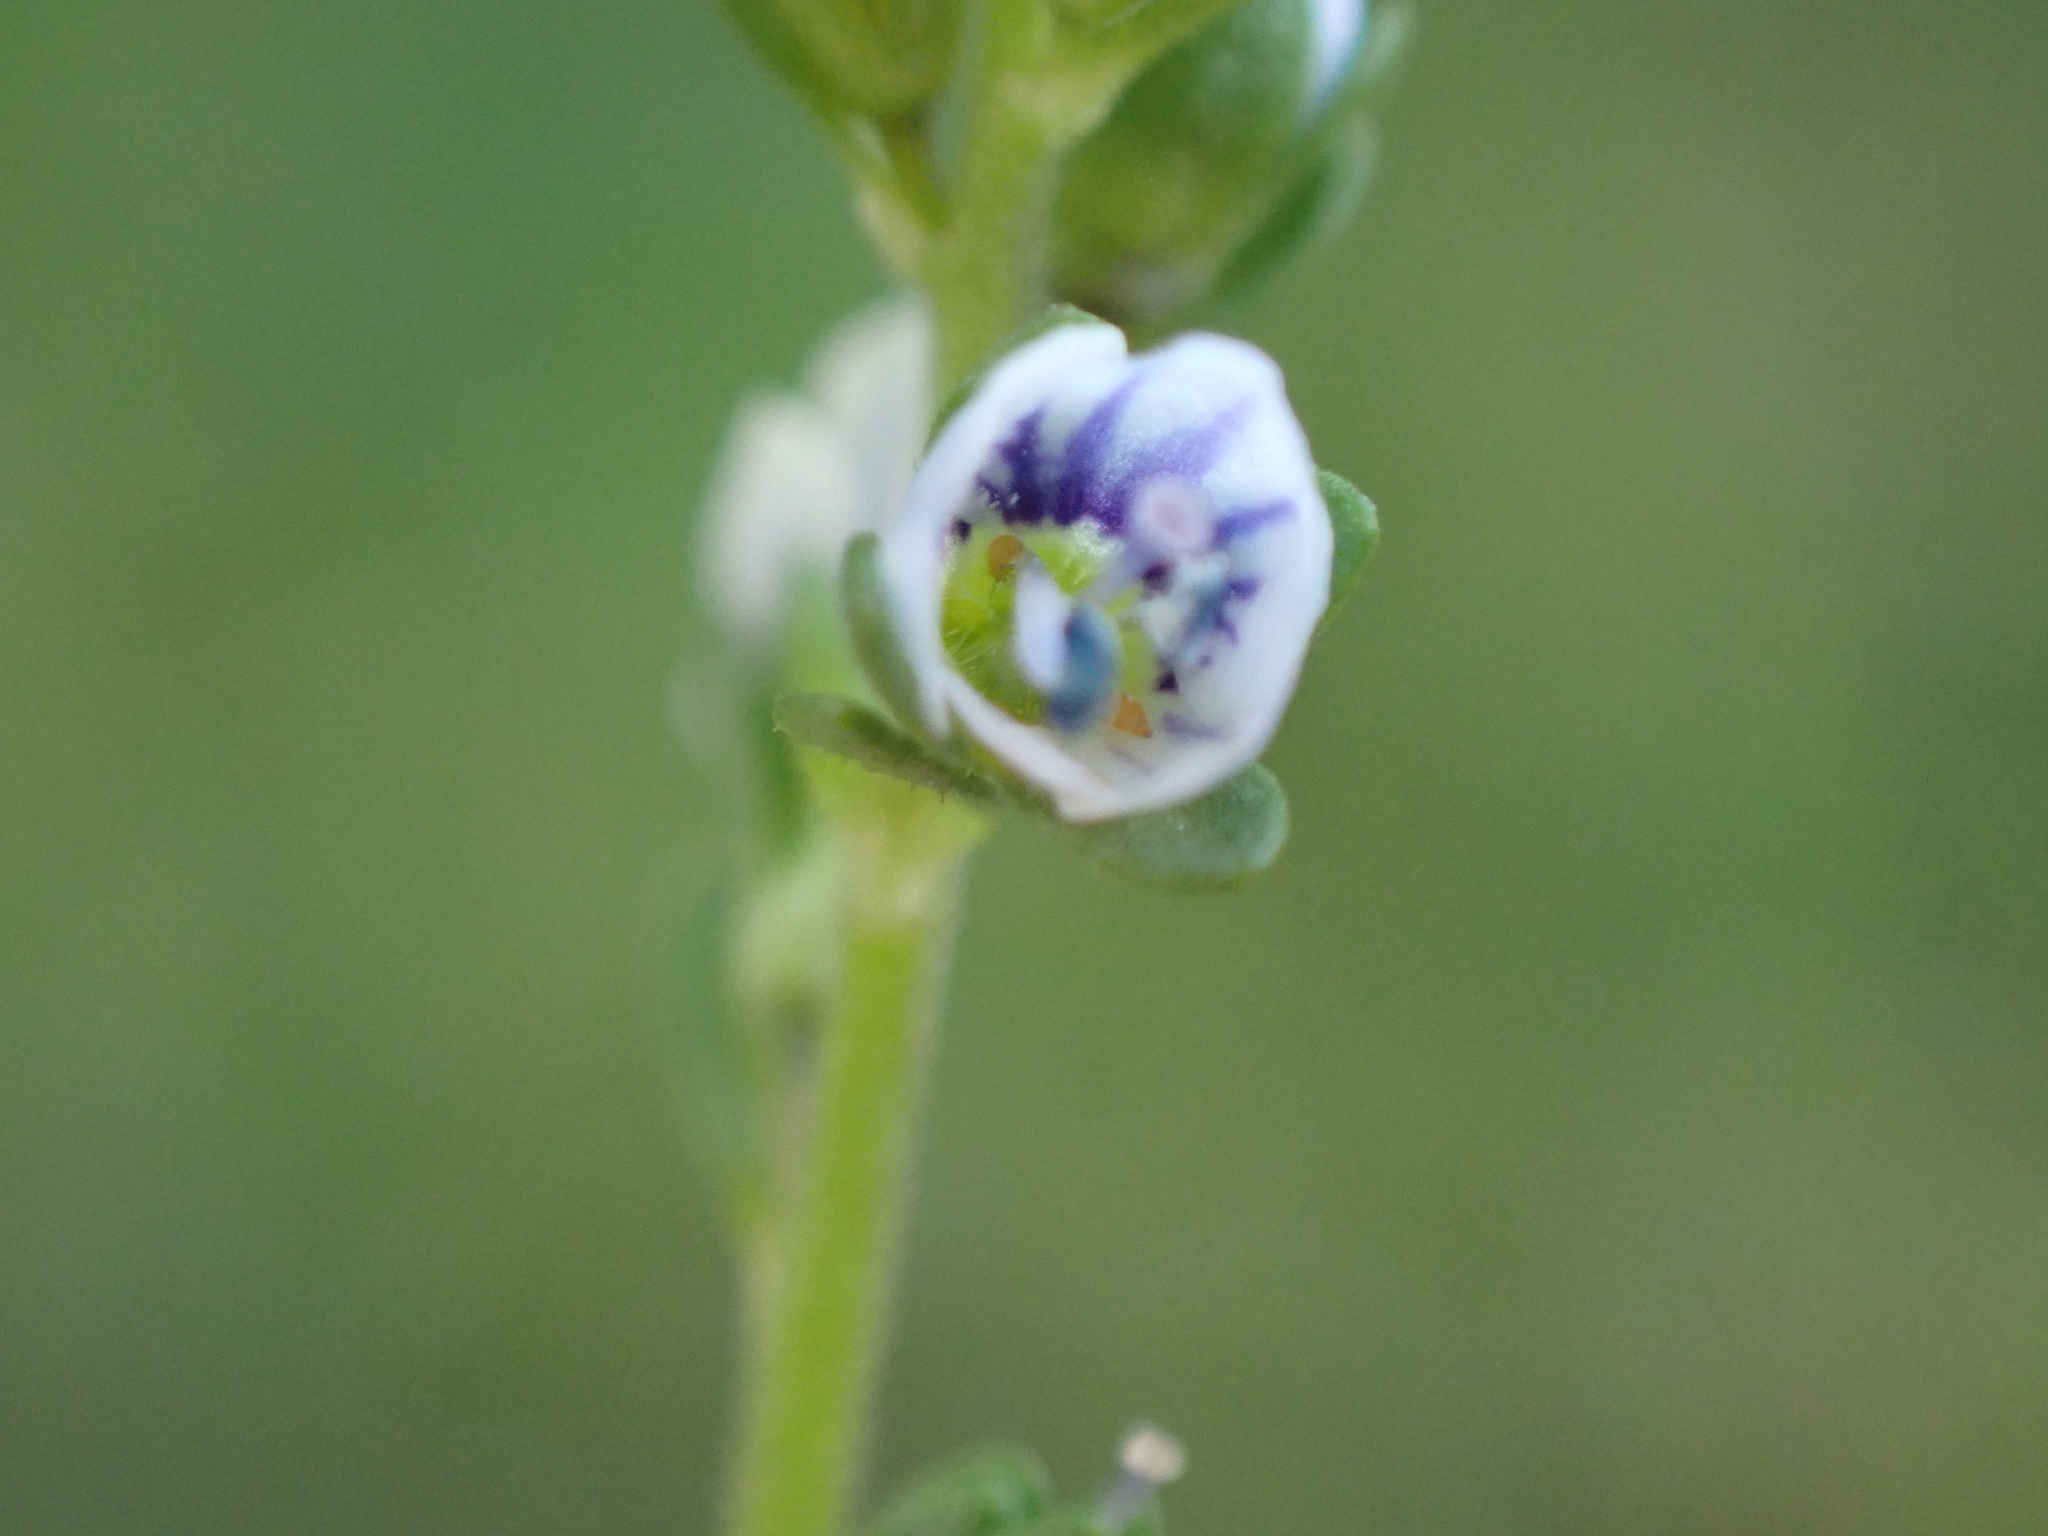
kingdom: Plantae
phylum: Tracheophyta
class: Magnoliopsida
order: Lamiales
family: Plantaginaceae
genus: Veronica
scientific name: Veronica serpyllifolia
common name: Thyme-leaved speedwell
